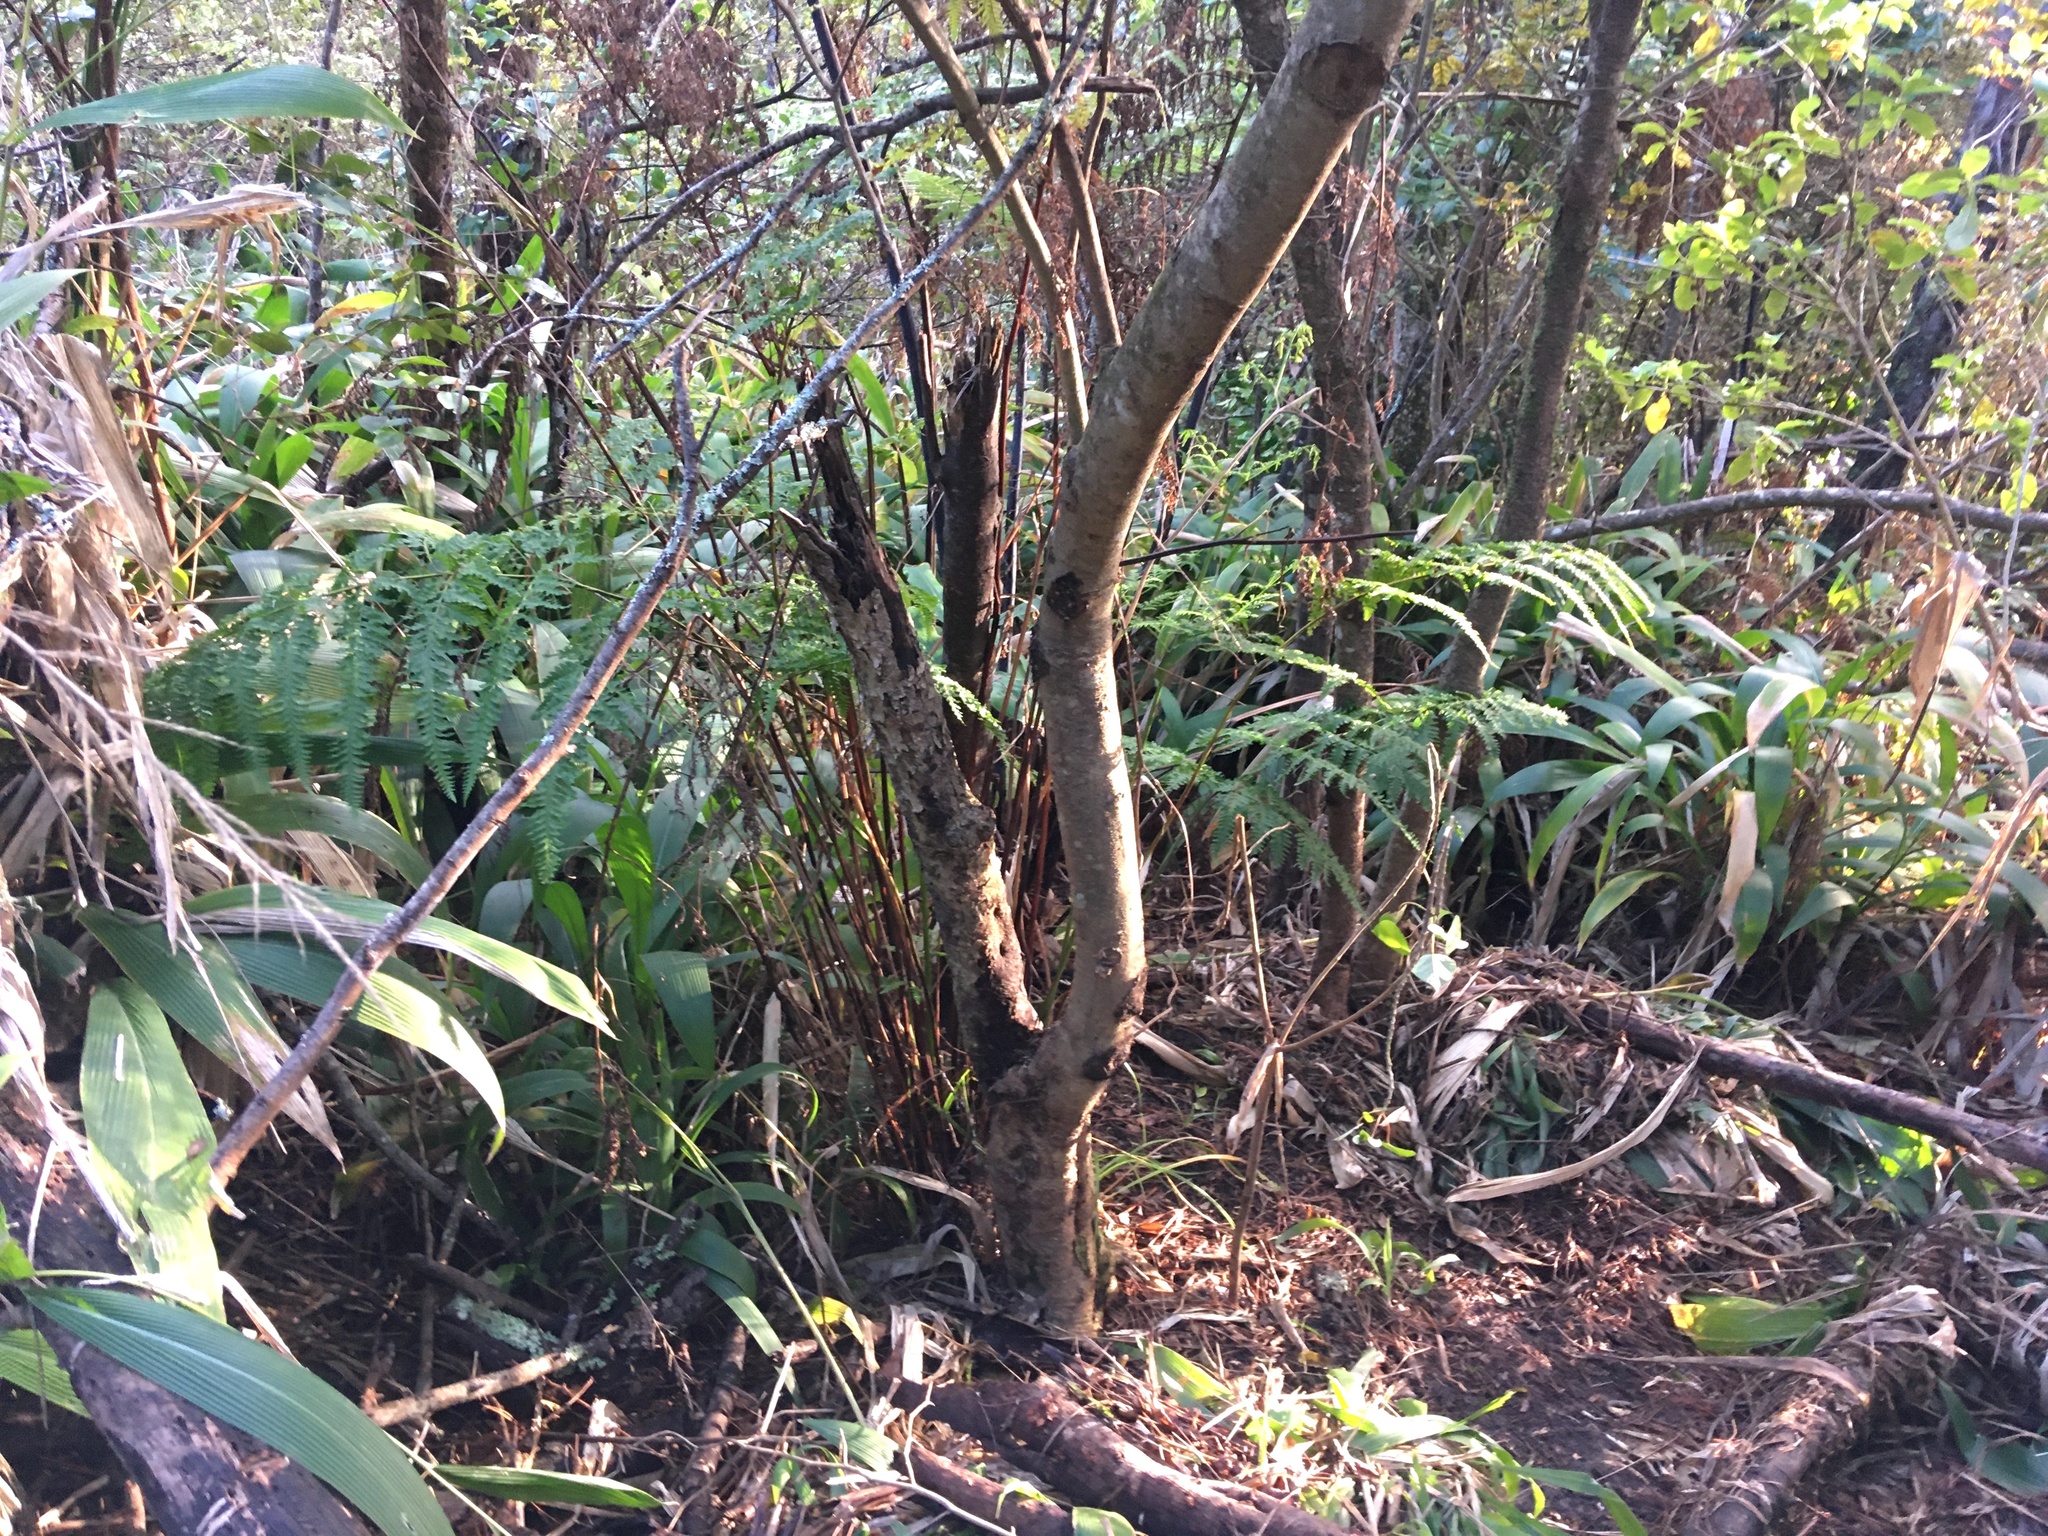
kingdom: Plantae
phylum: Tracheophyta
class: Polypodiopsida
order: Polypodiales
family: Pteridaceae
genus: Pteris
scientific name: Pteris tremula
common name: Australian brake
